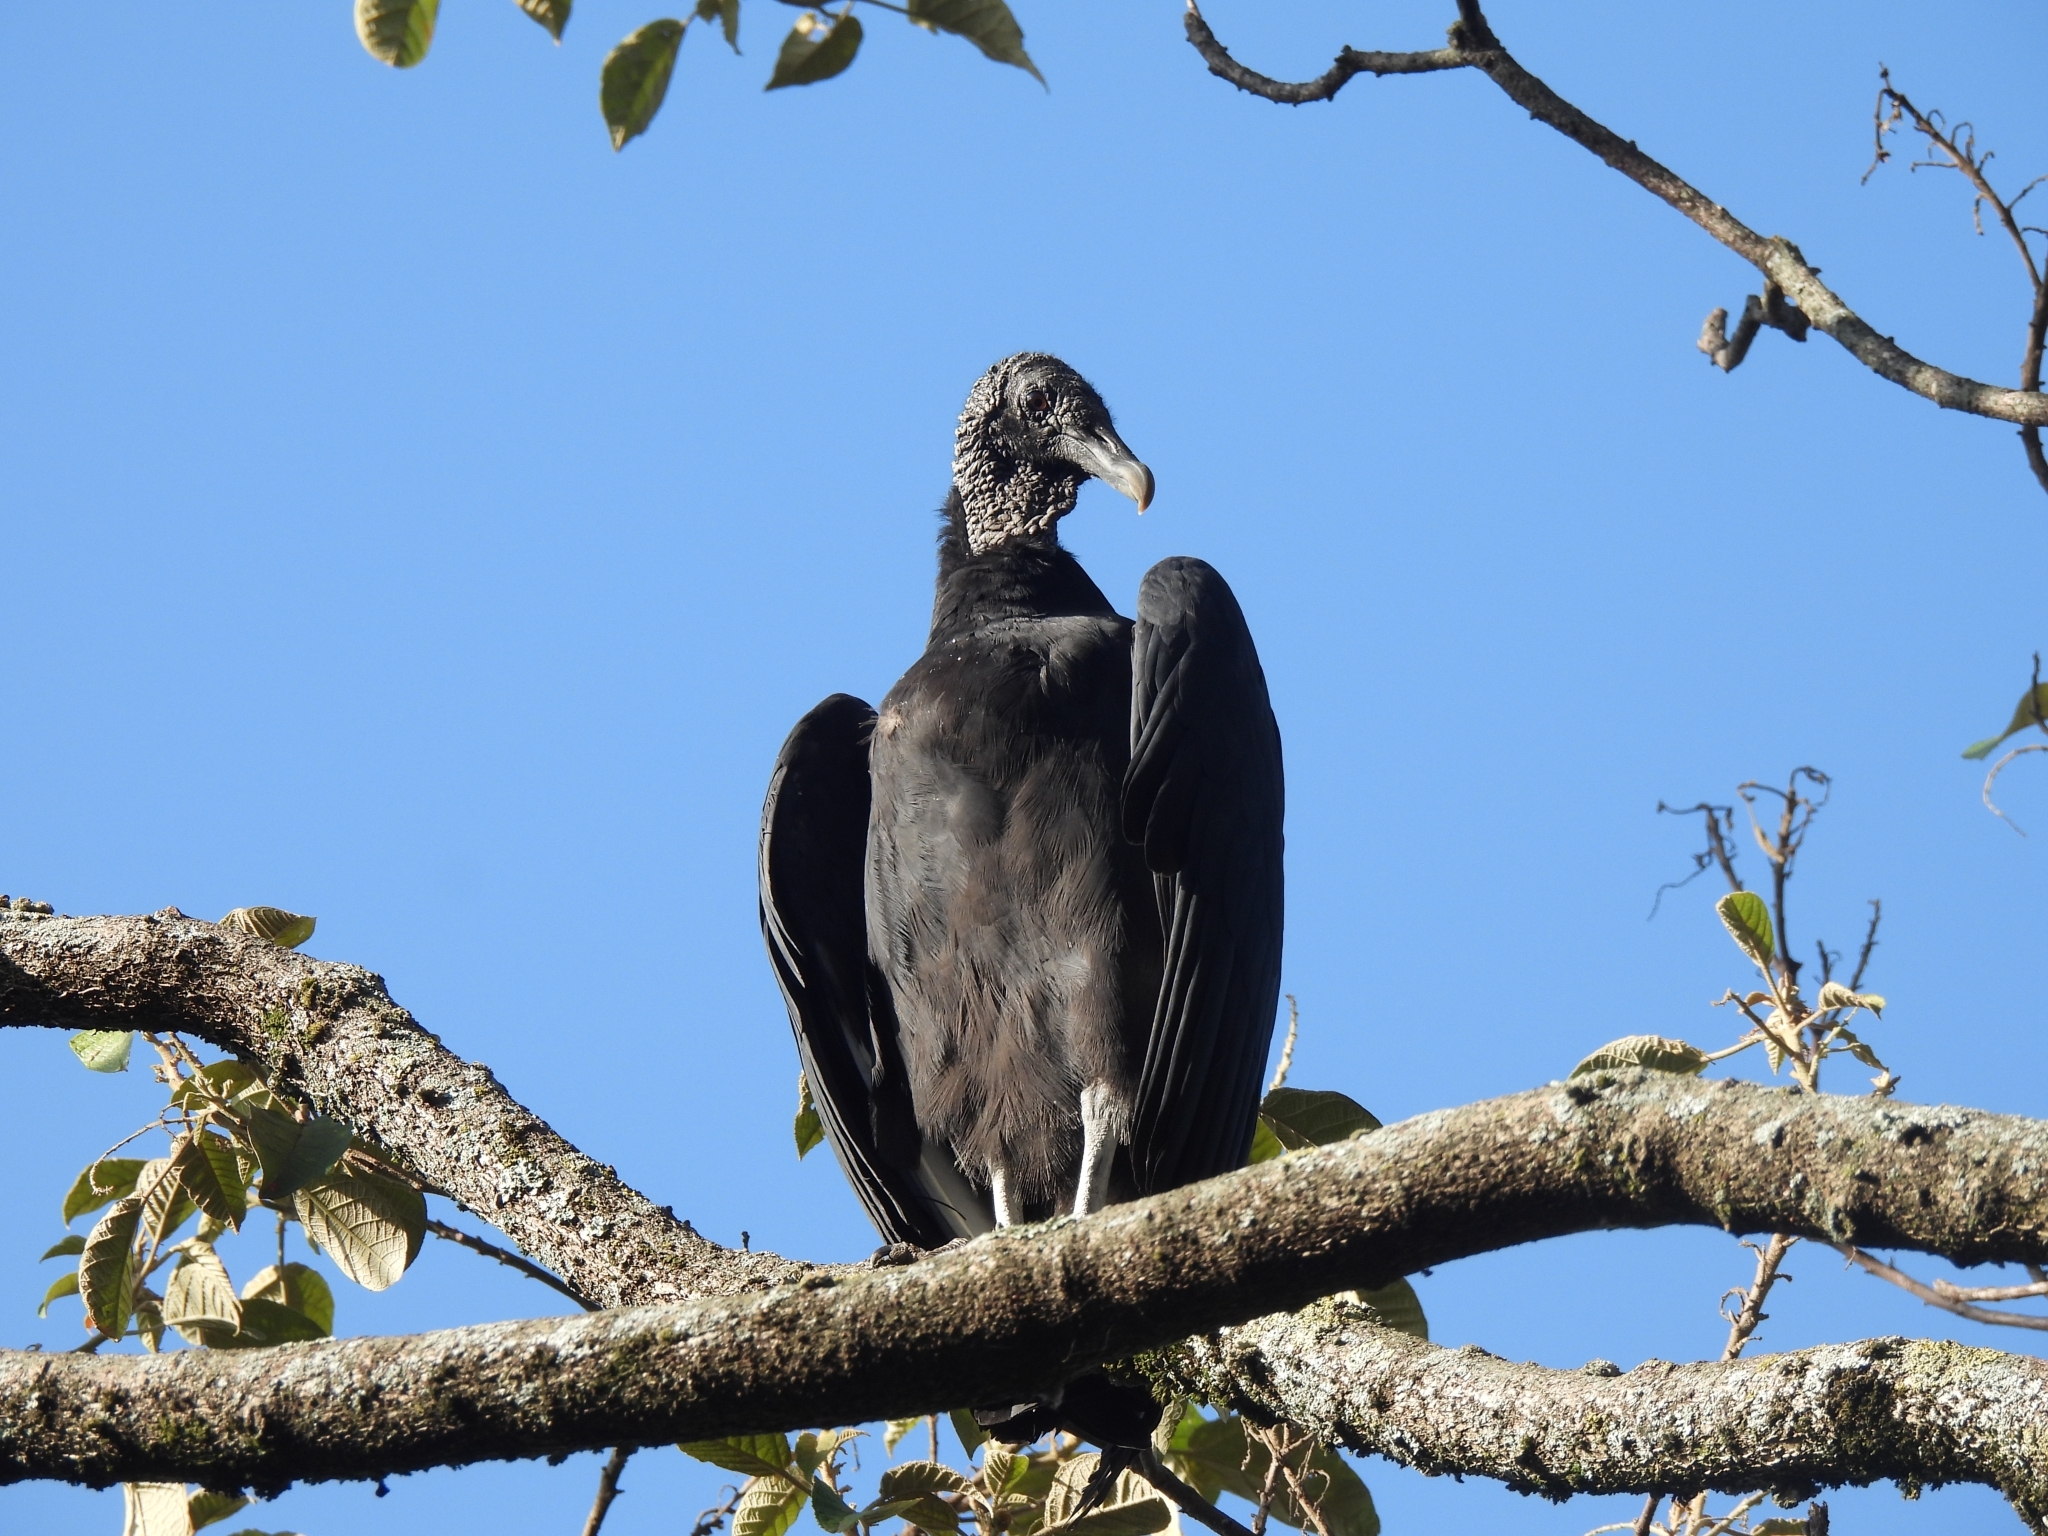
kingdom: Animalia
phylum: Chordata
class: Aves
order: Accipitriformes
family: Cathartidae
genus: Coragyps
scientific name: Coragyps atratus
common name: Black vulture
